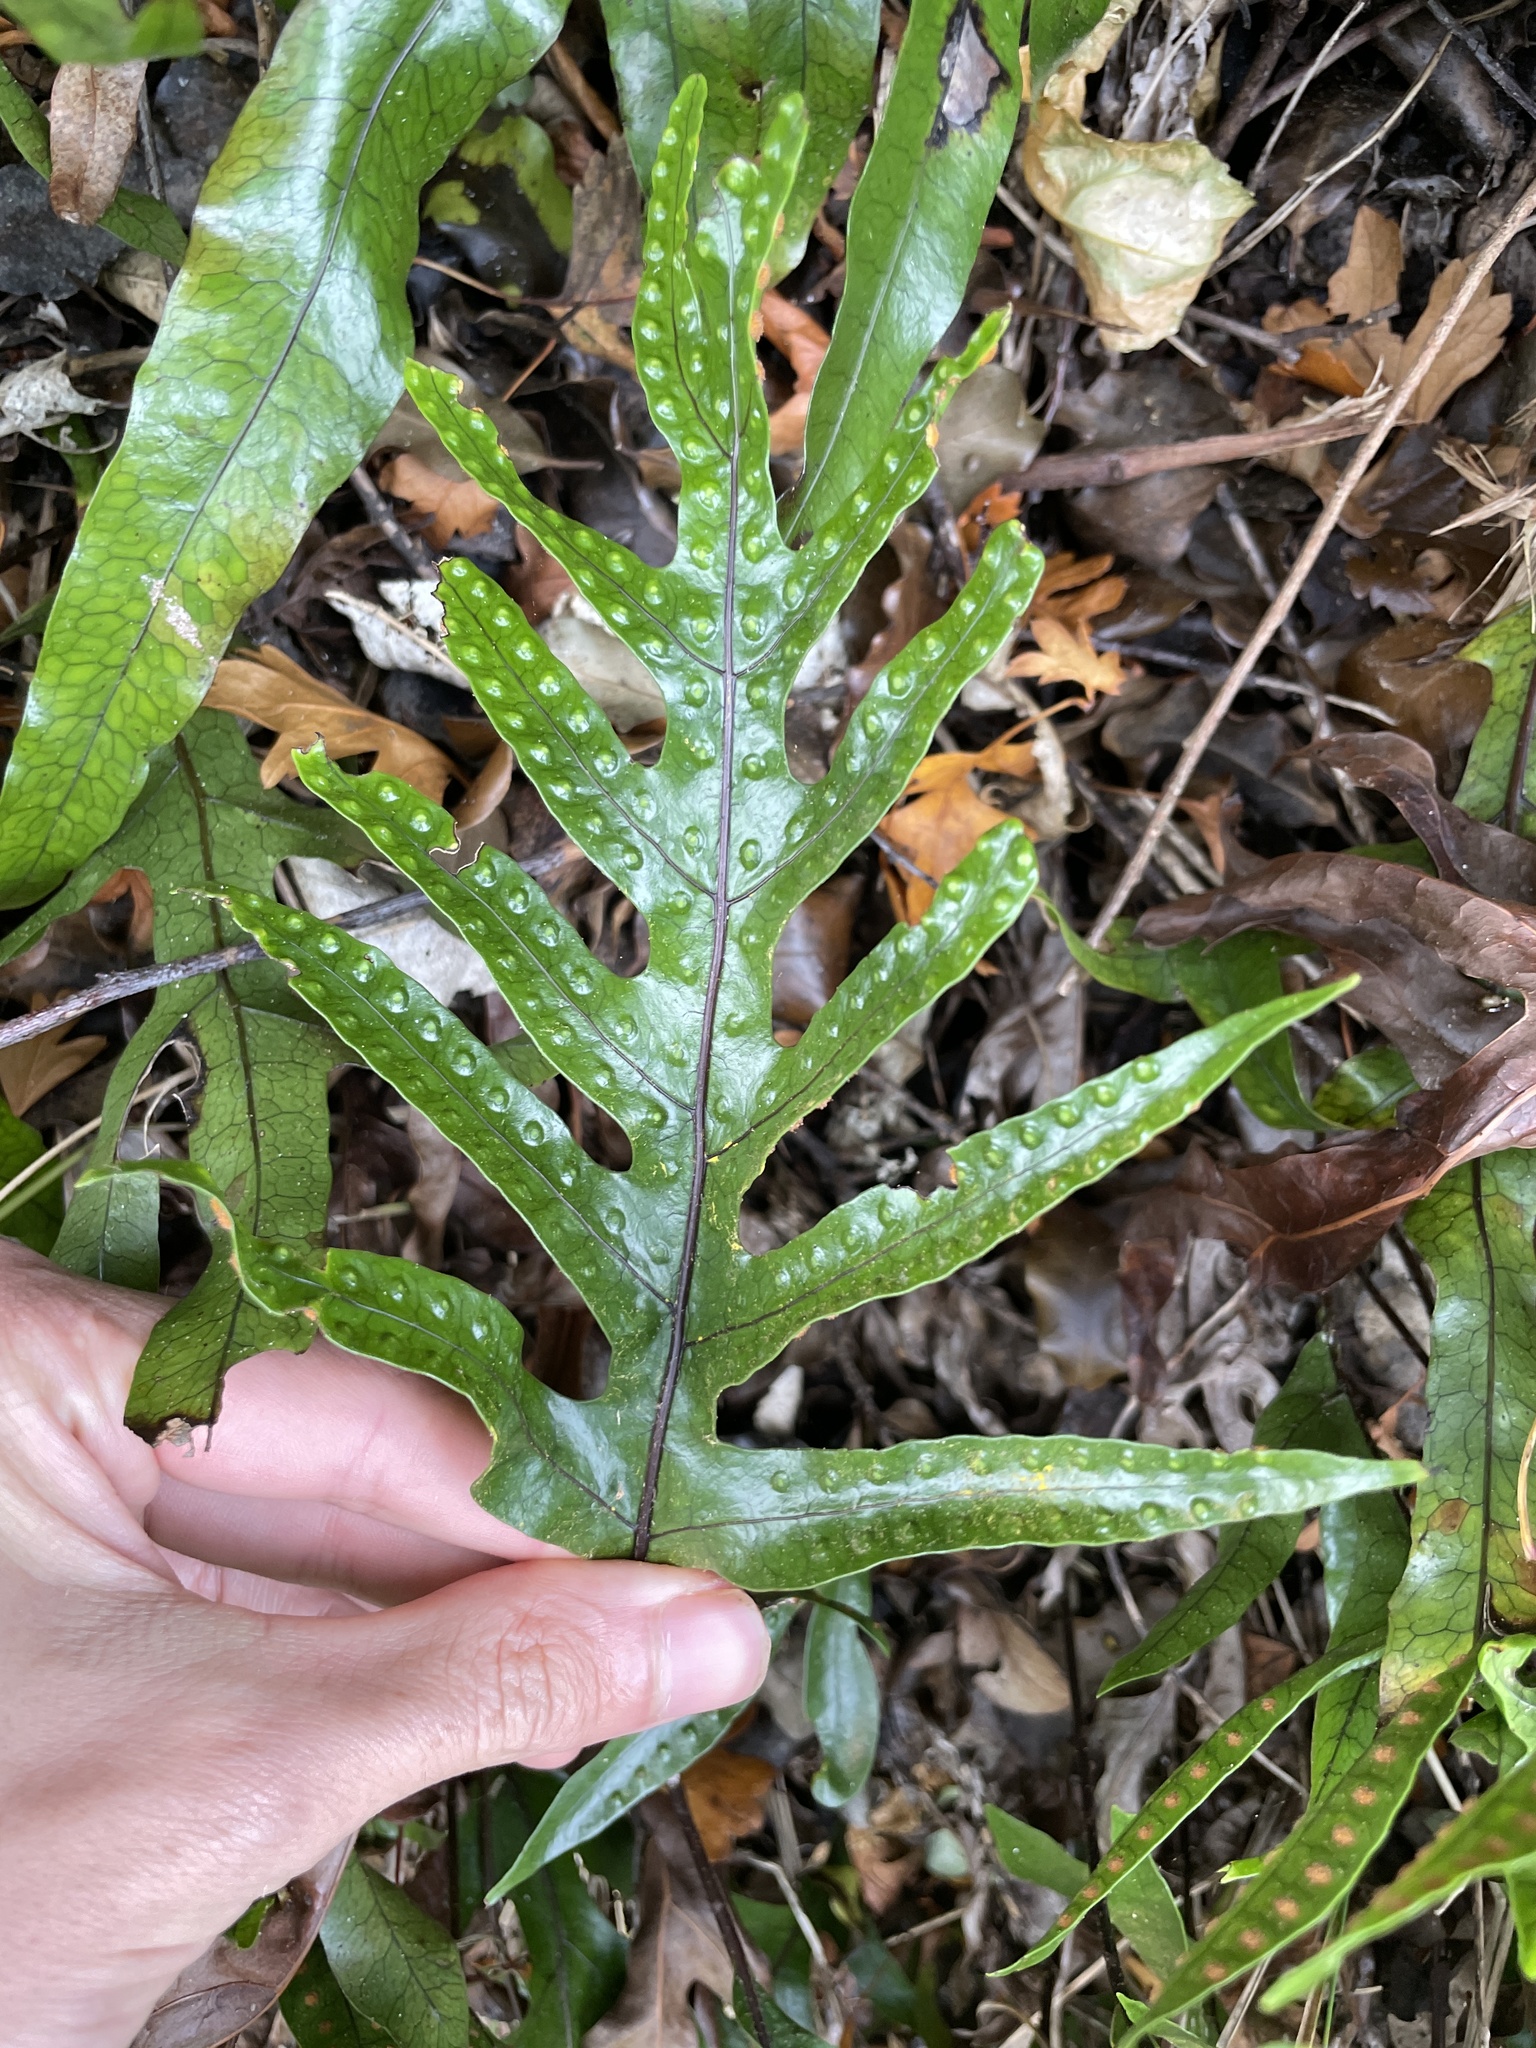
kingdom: Plantae
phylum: Tracheophyta
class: Polypodiopsida
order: Polypodiales
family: Polypodiaceae
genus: Lecanopteris
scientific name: Lecanopteris pustulata
